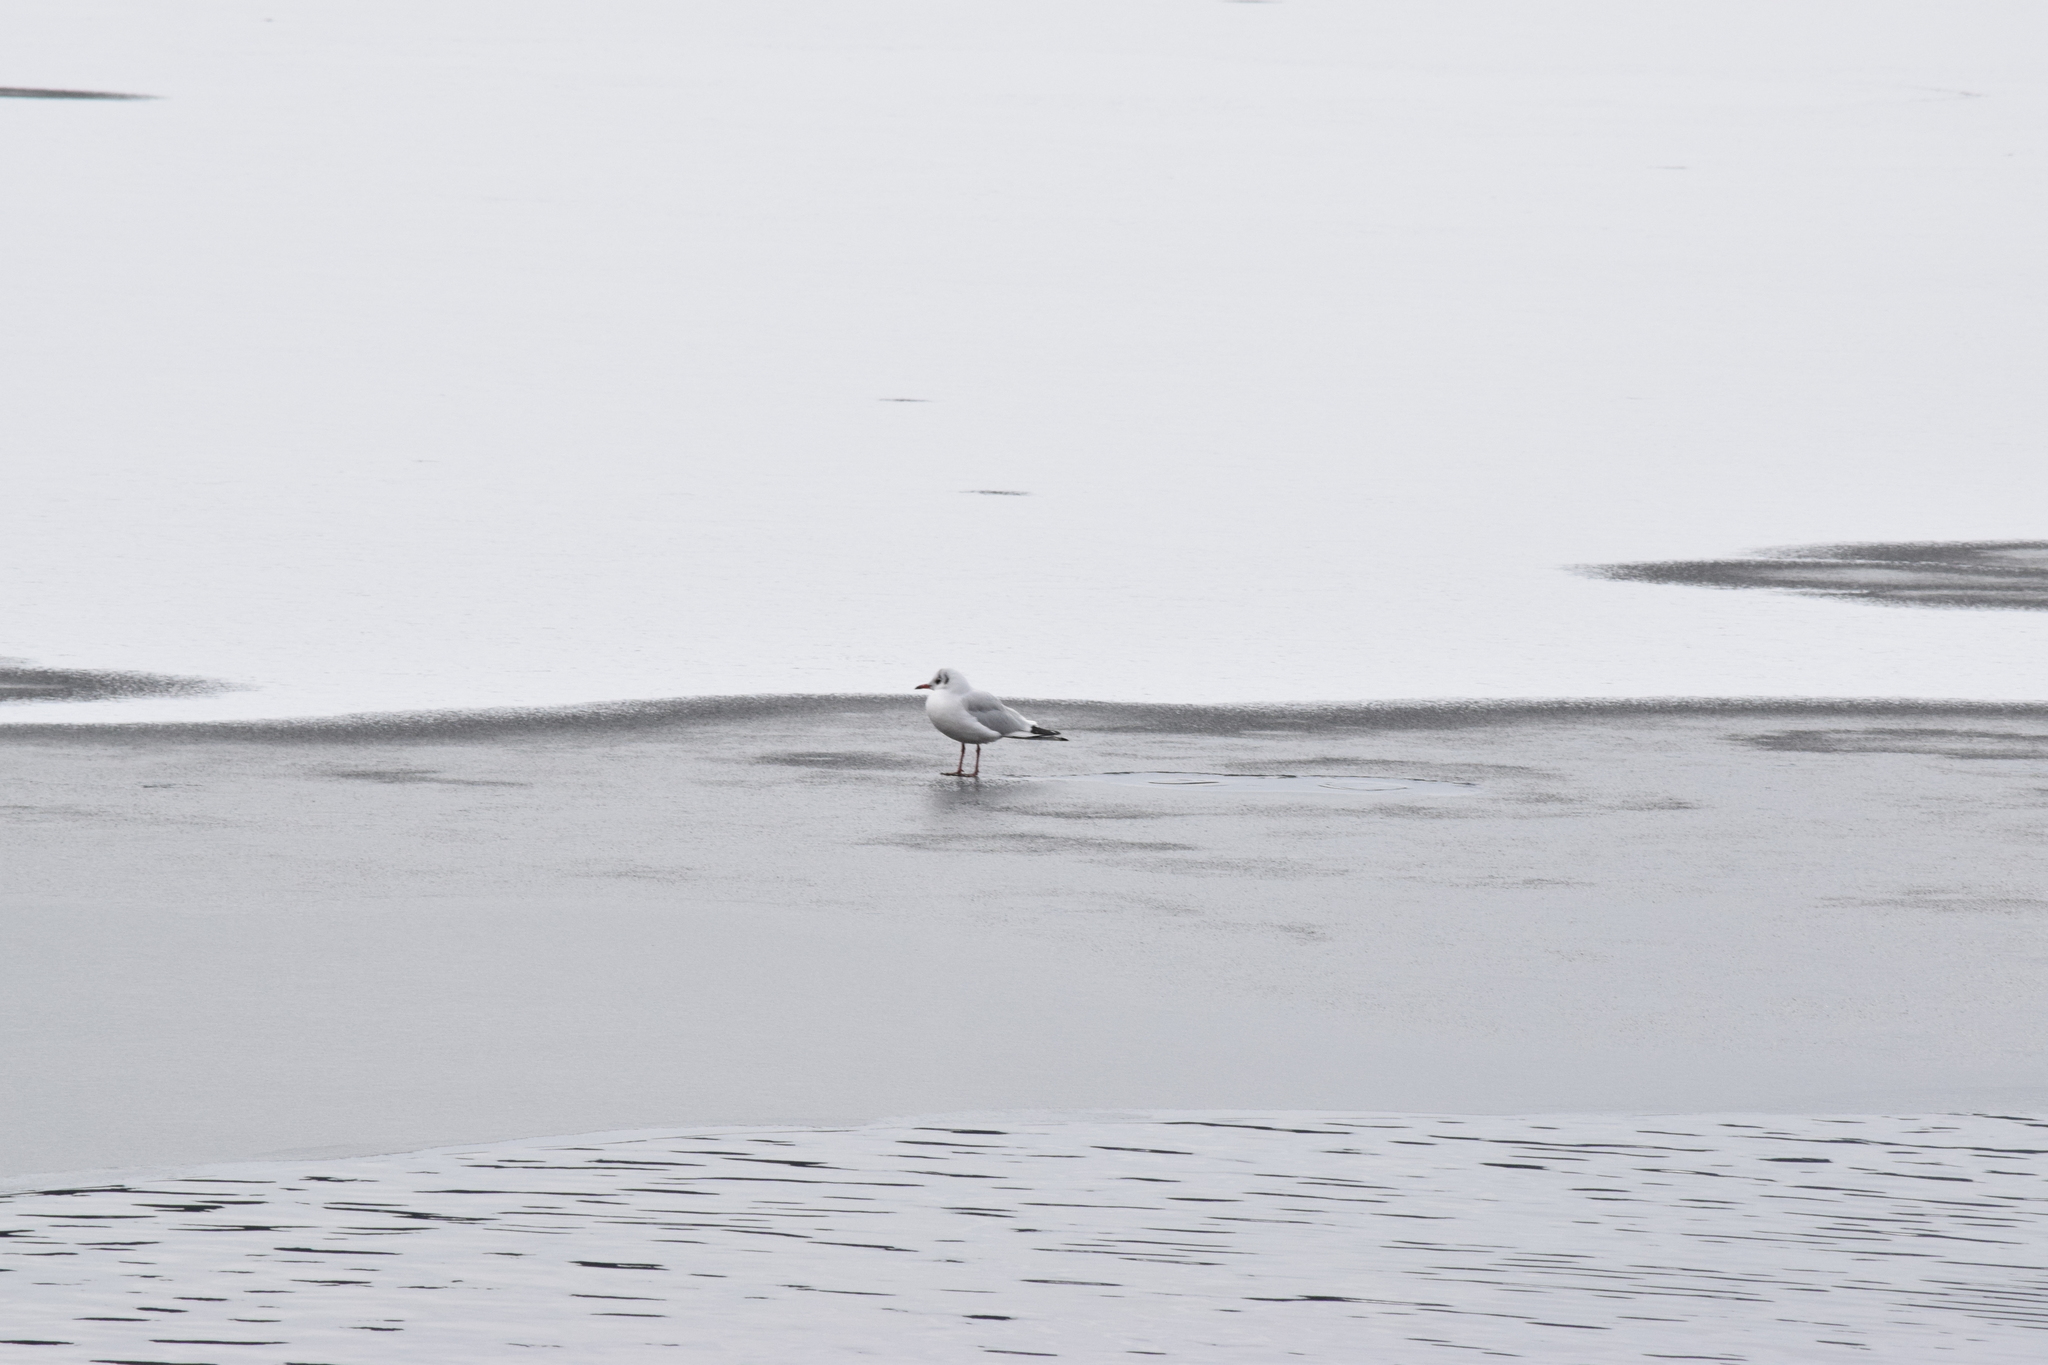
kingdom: Animalia
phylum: Chordata
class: Aves
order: Charadriiformes
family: Laridae
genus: Chroicocephalus
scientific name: Chroicocephalus ridibundus
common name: Black-headed gull
